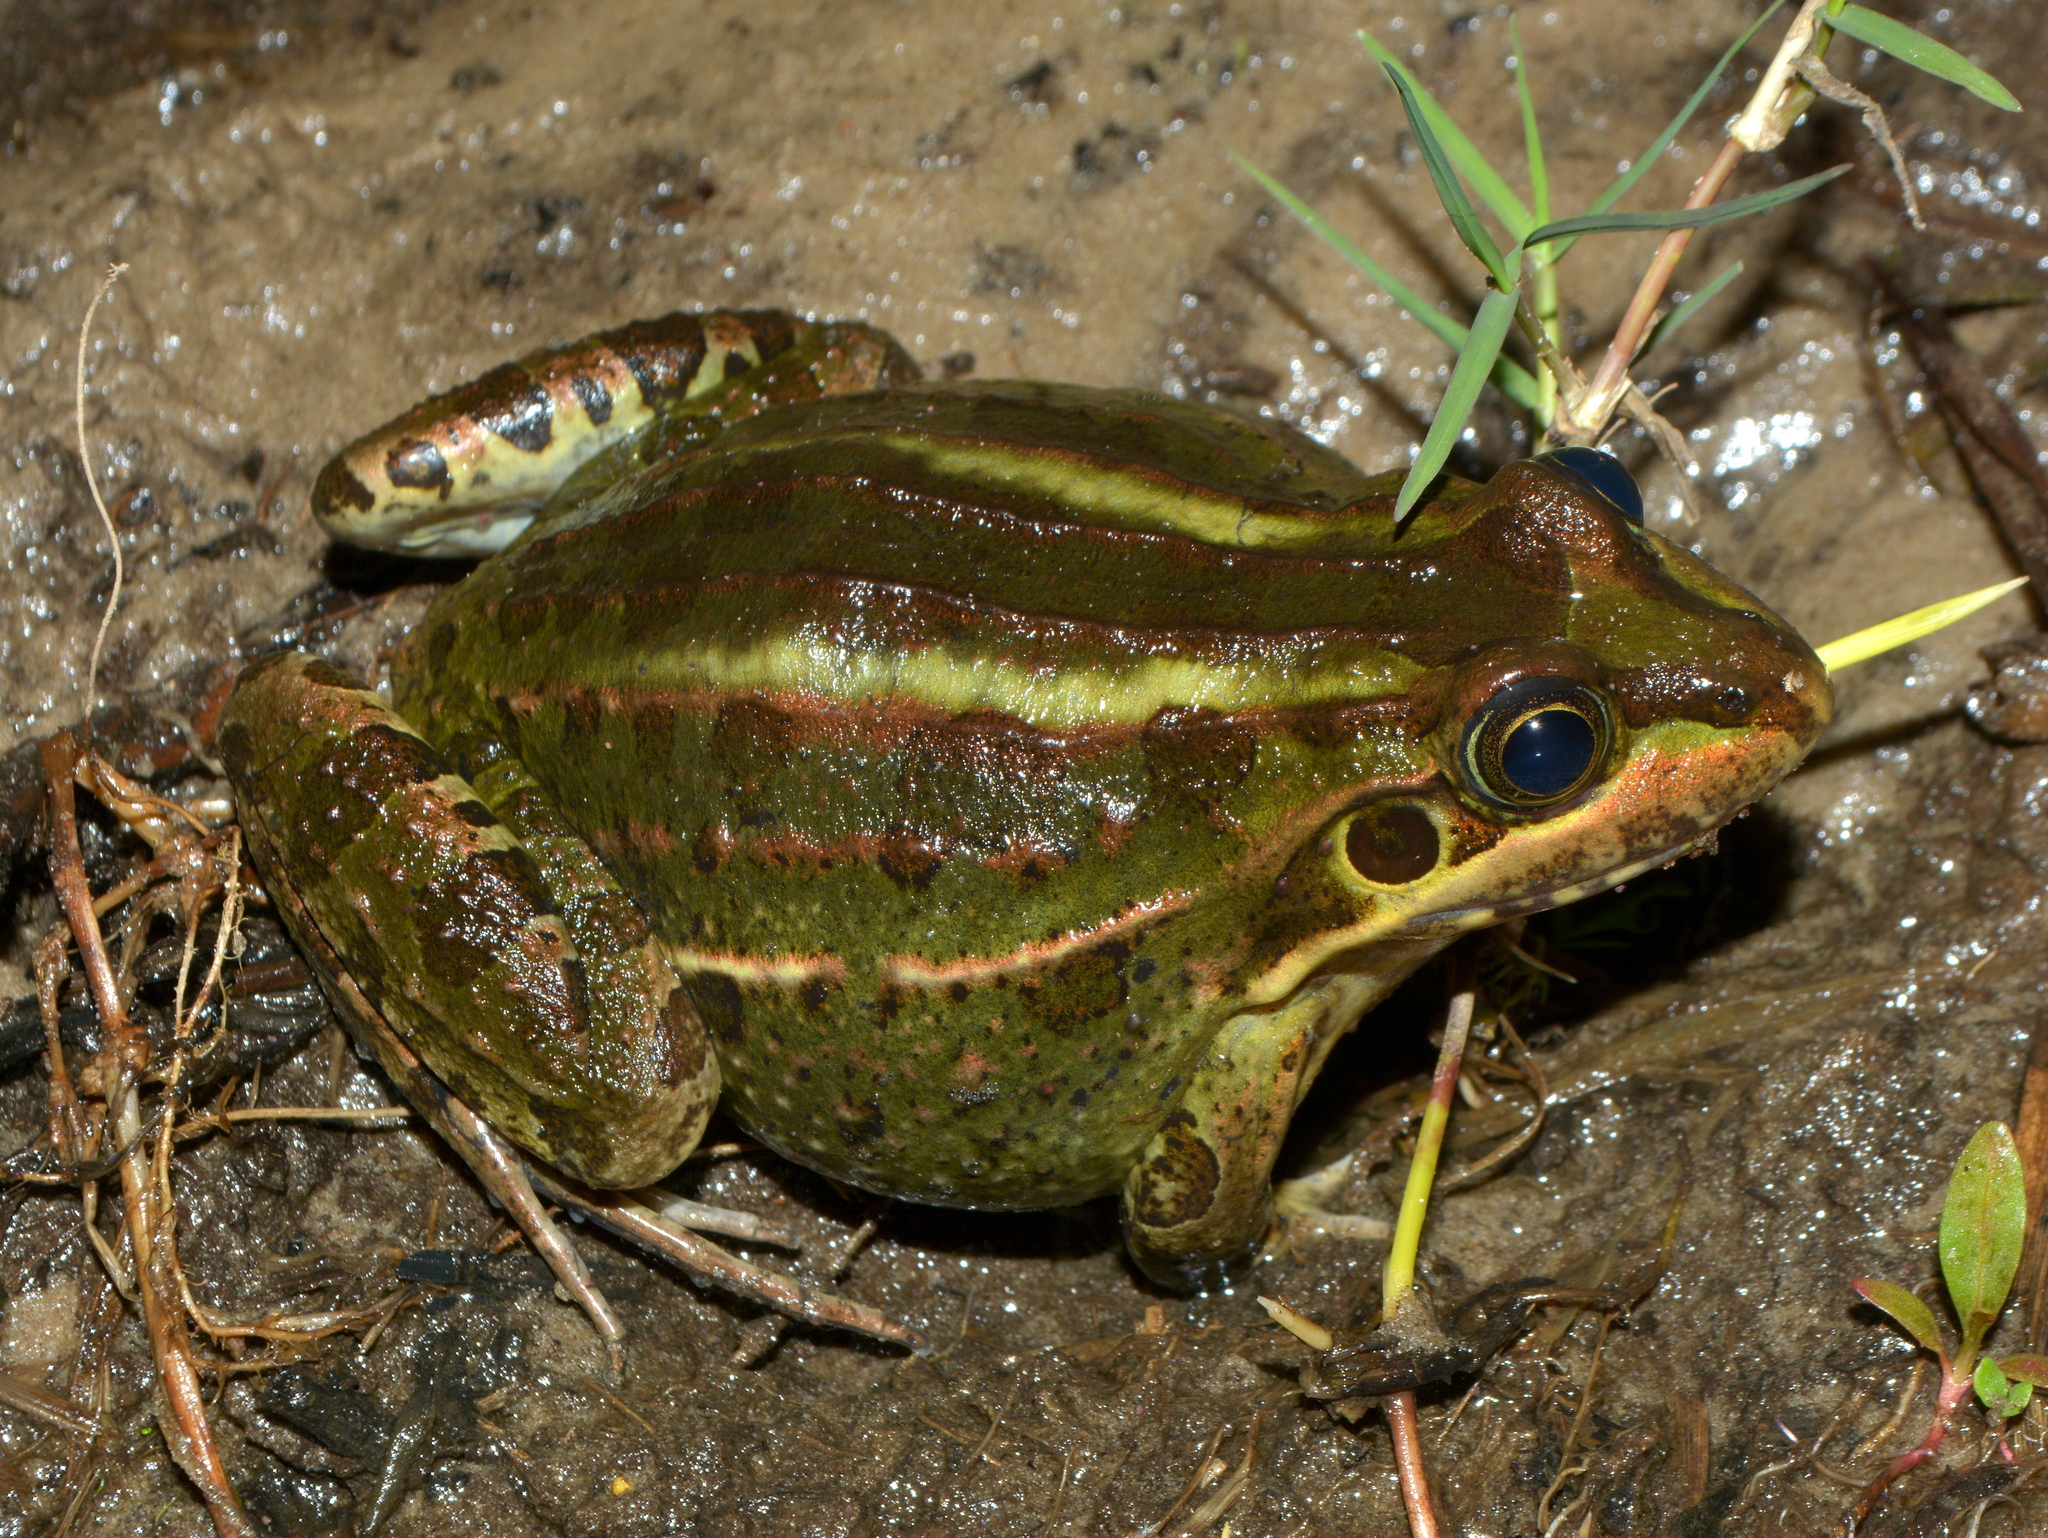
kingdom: Animalia
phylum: Chordata
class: Amphibia
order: Anura
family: Leptodactylidae
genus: Leptodactylus
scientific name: Leptodactylus luctator
